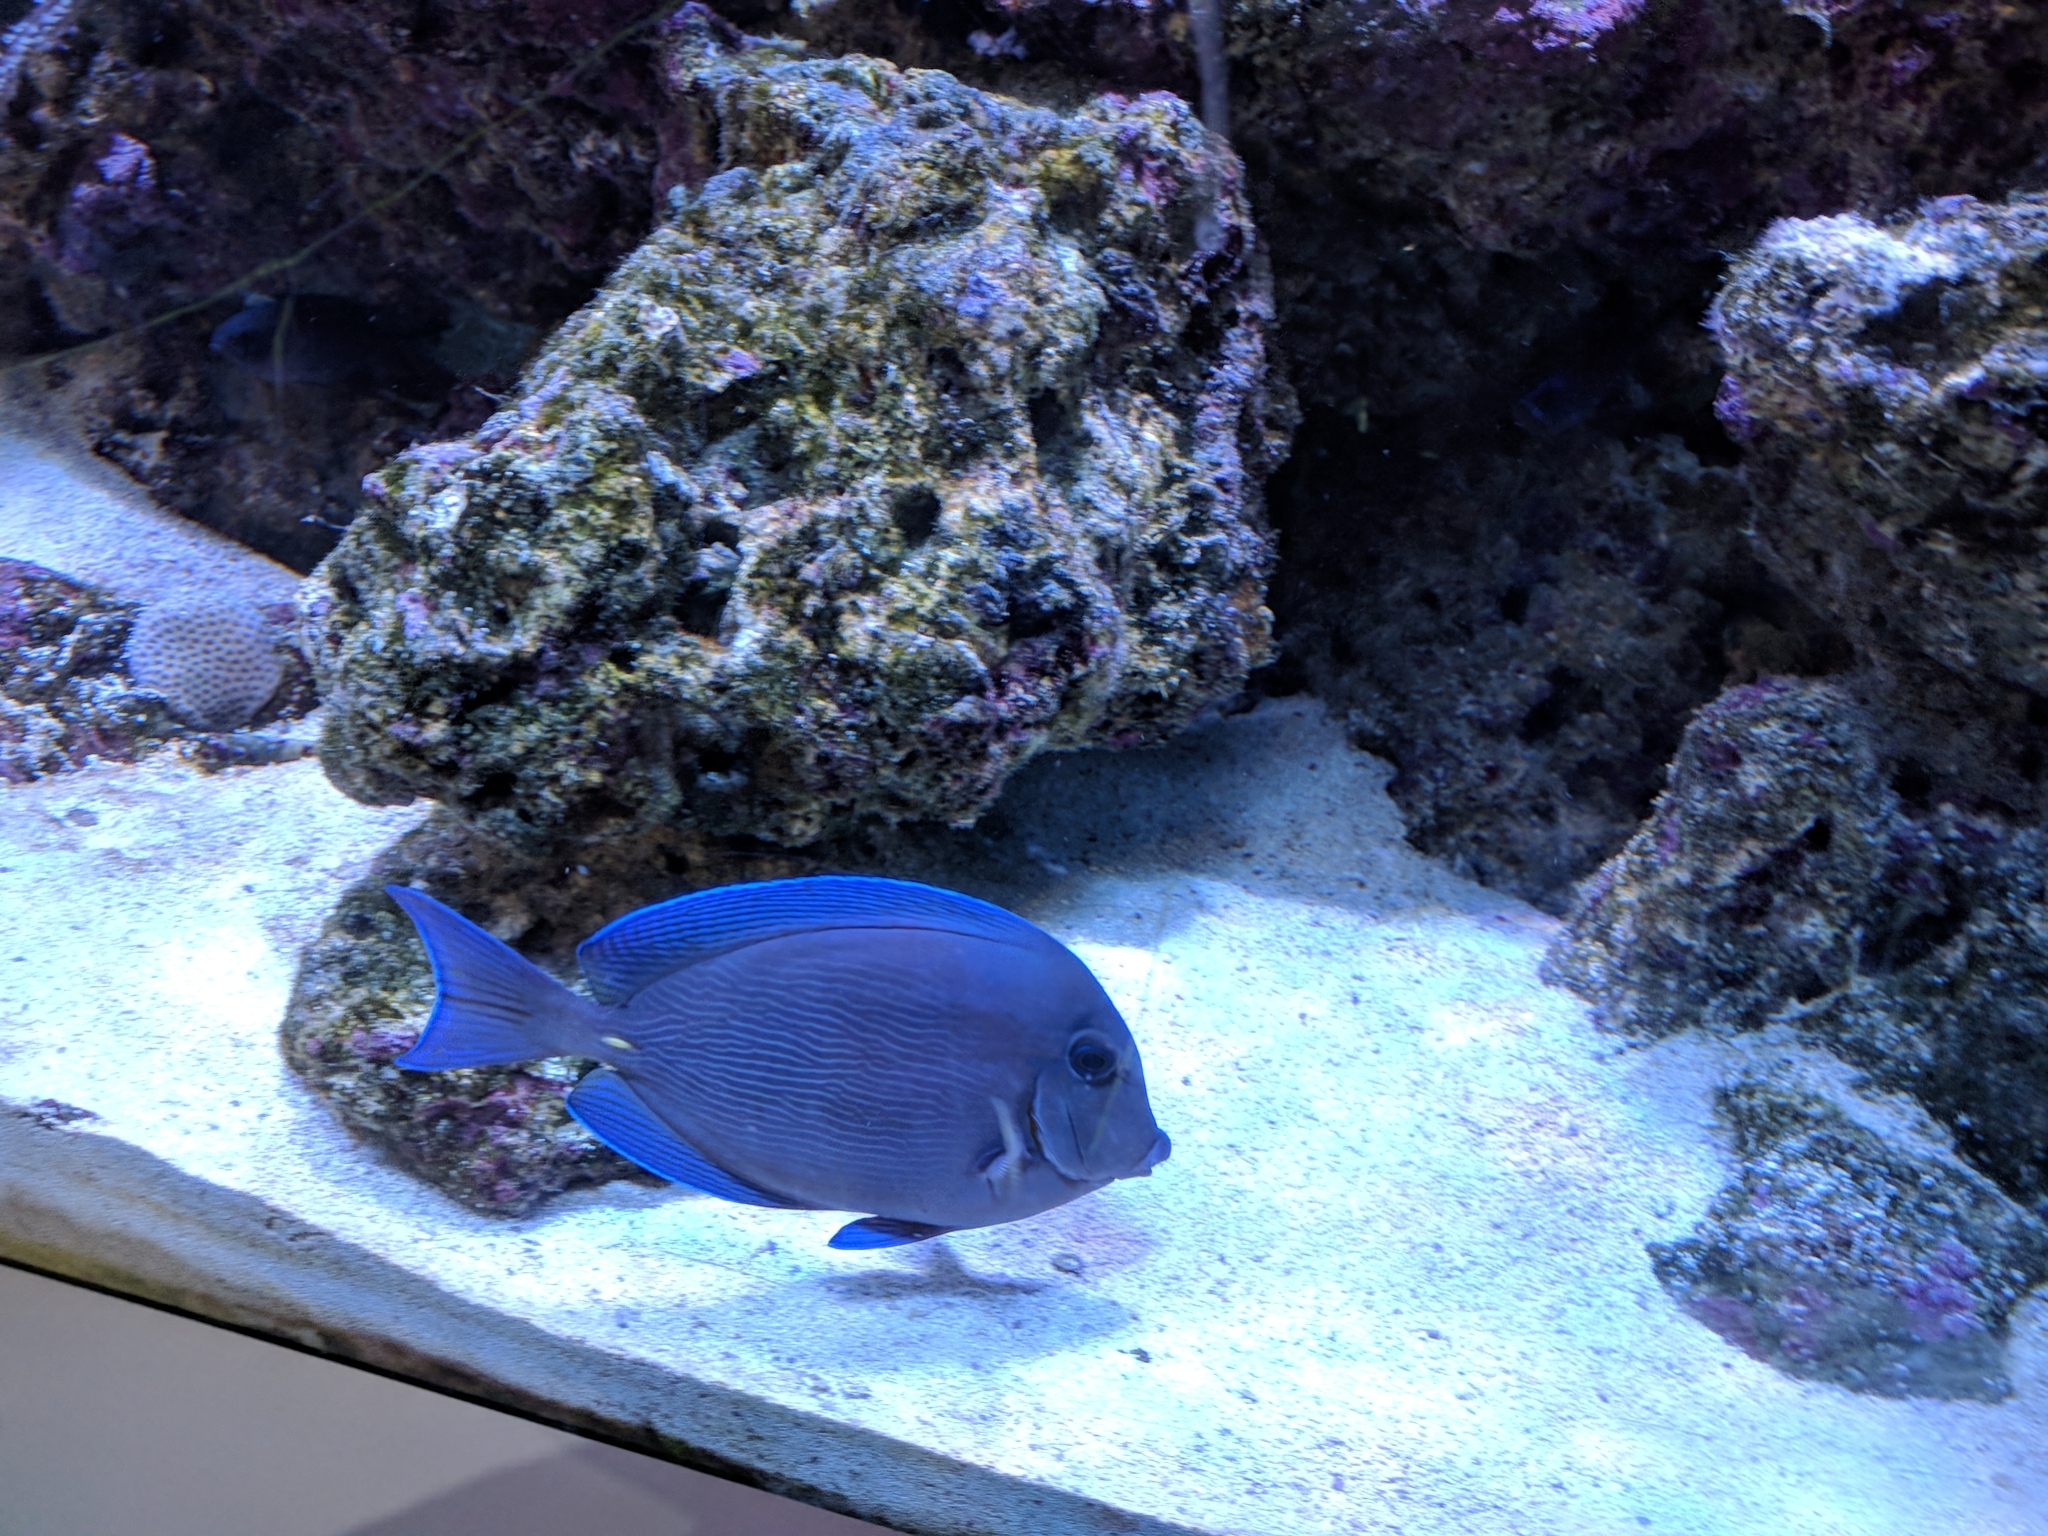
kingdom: Animalia
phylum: Chordata
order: Perciformes
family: Acanthuridae
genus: Acanthurus
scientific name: Acanthurus coeruleus
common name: Blue tang
